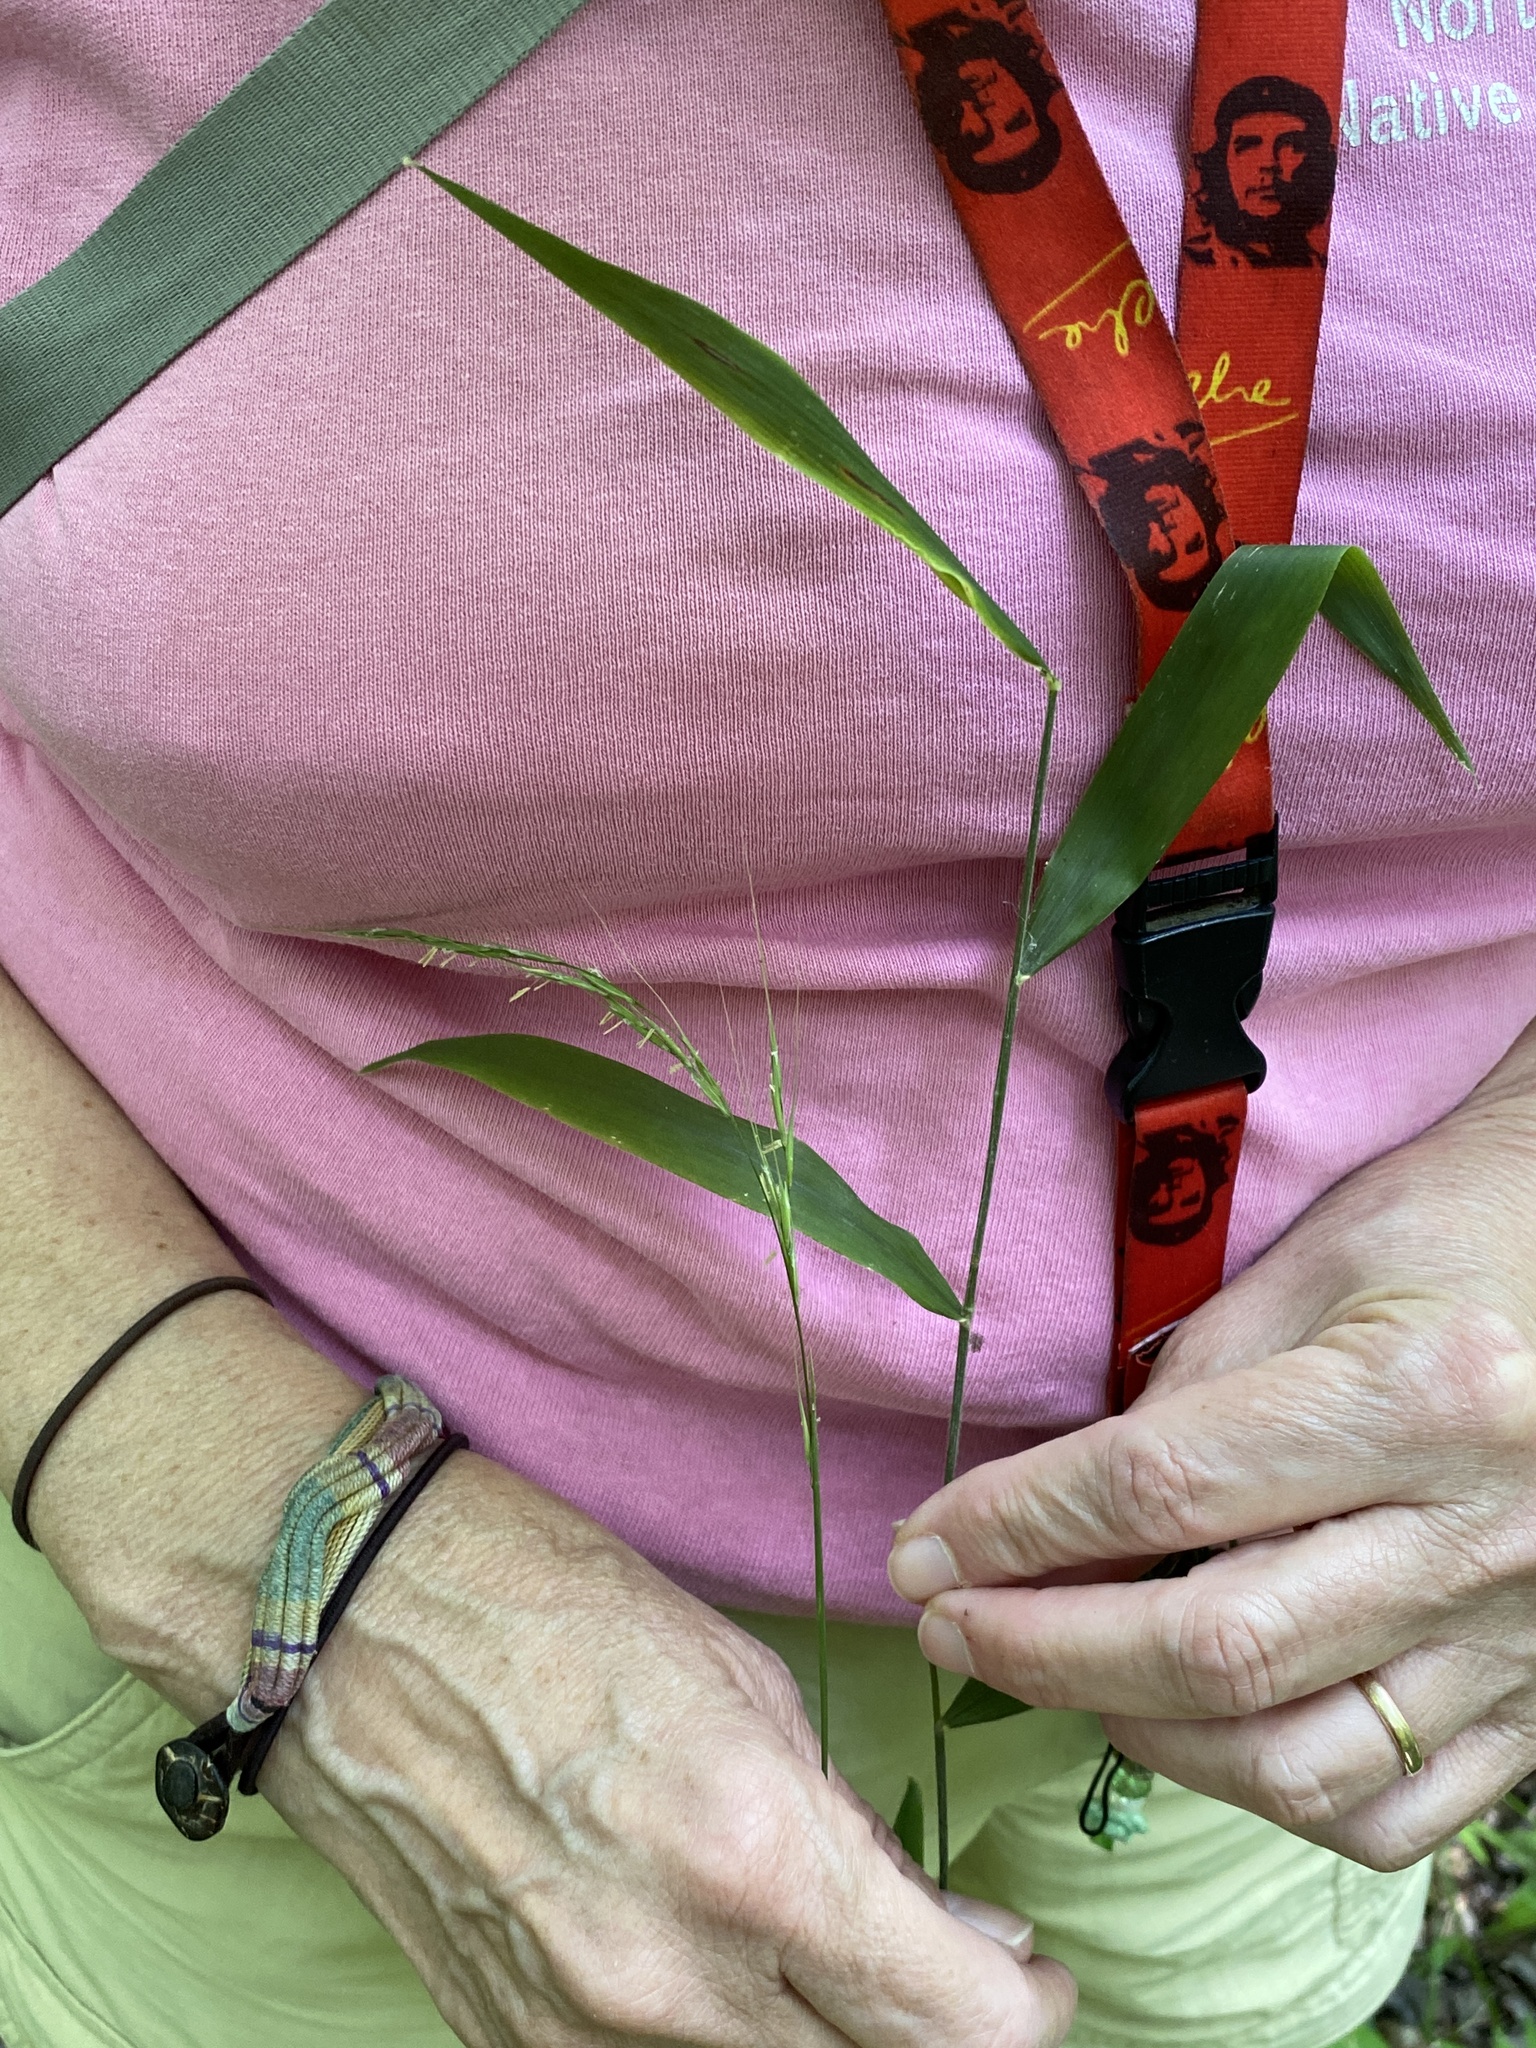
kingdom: Plantae
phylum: Tracheophyta
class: Liliopsida
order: Poales
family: Poaceae
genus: Brachyelytrum
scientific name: Brachyelytrum erectum
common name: Bearded shorthusk
